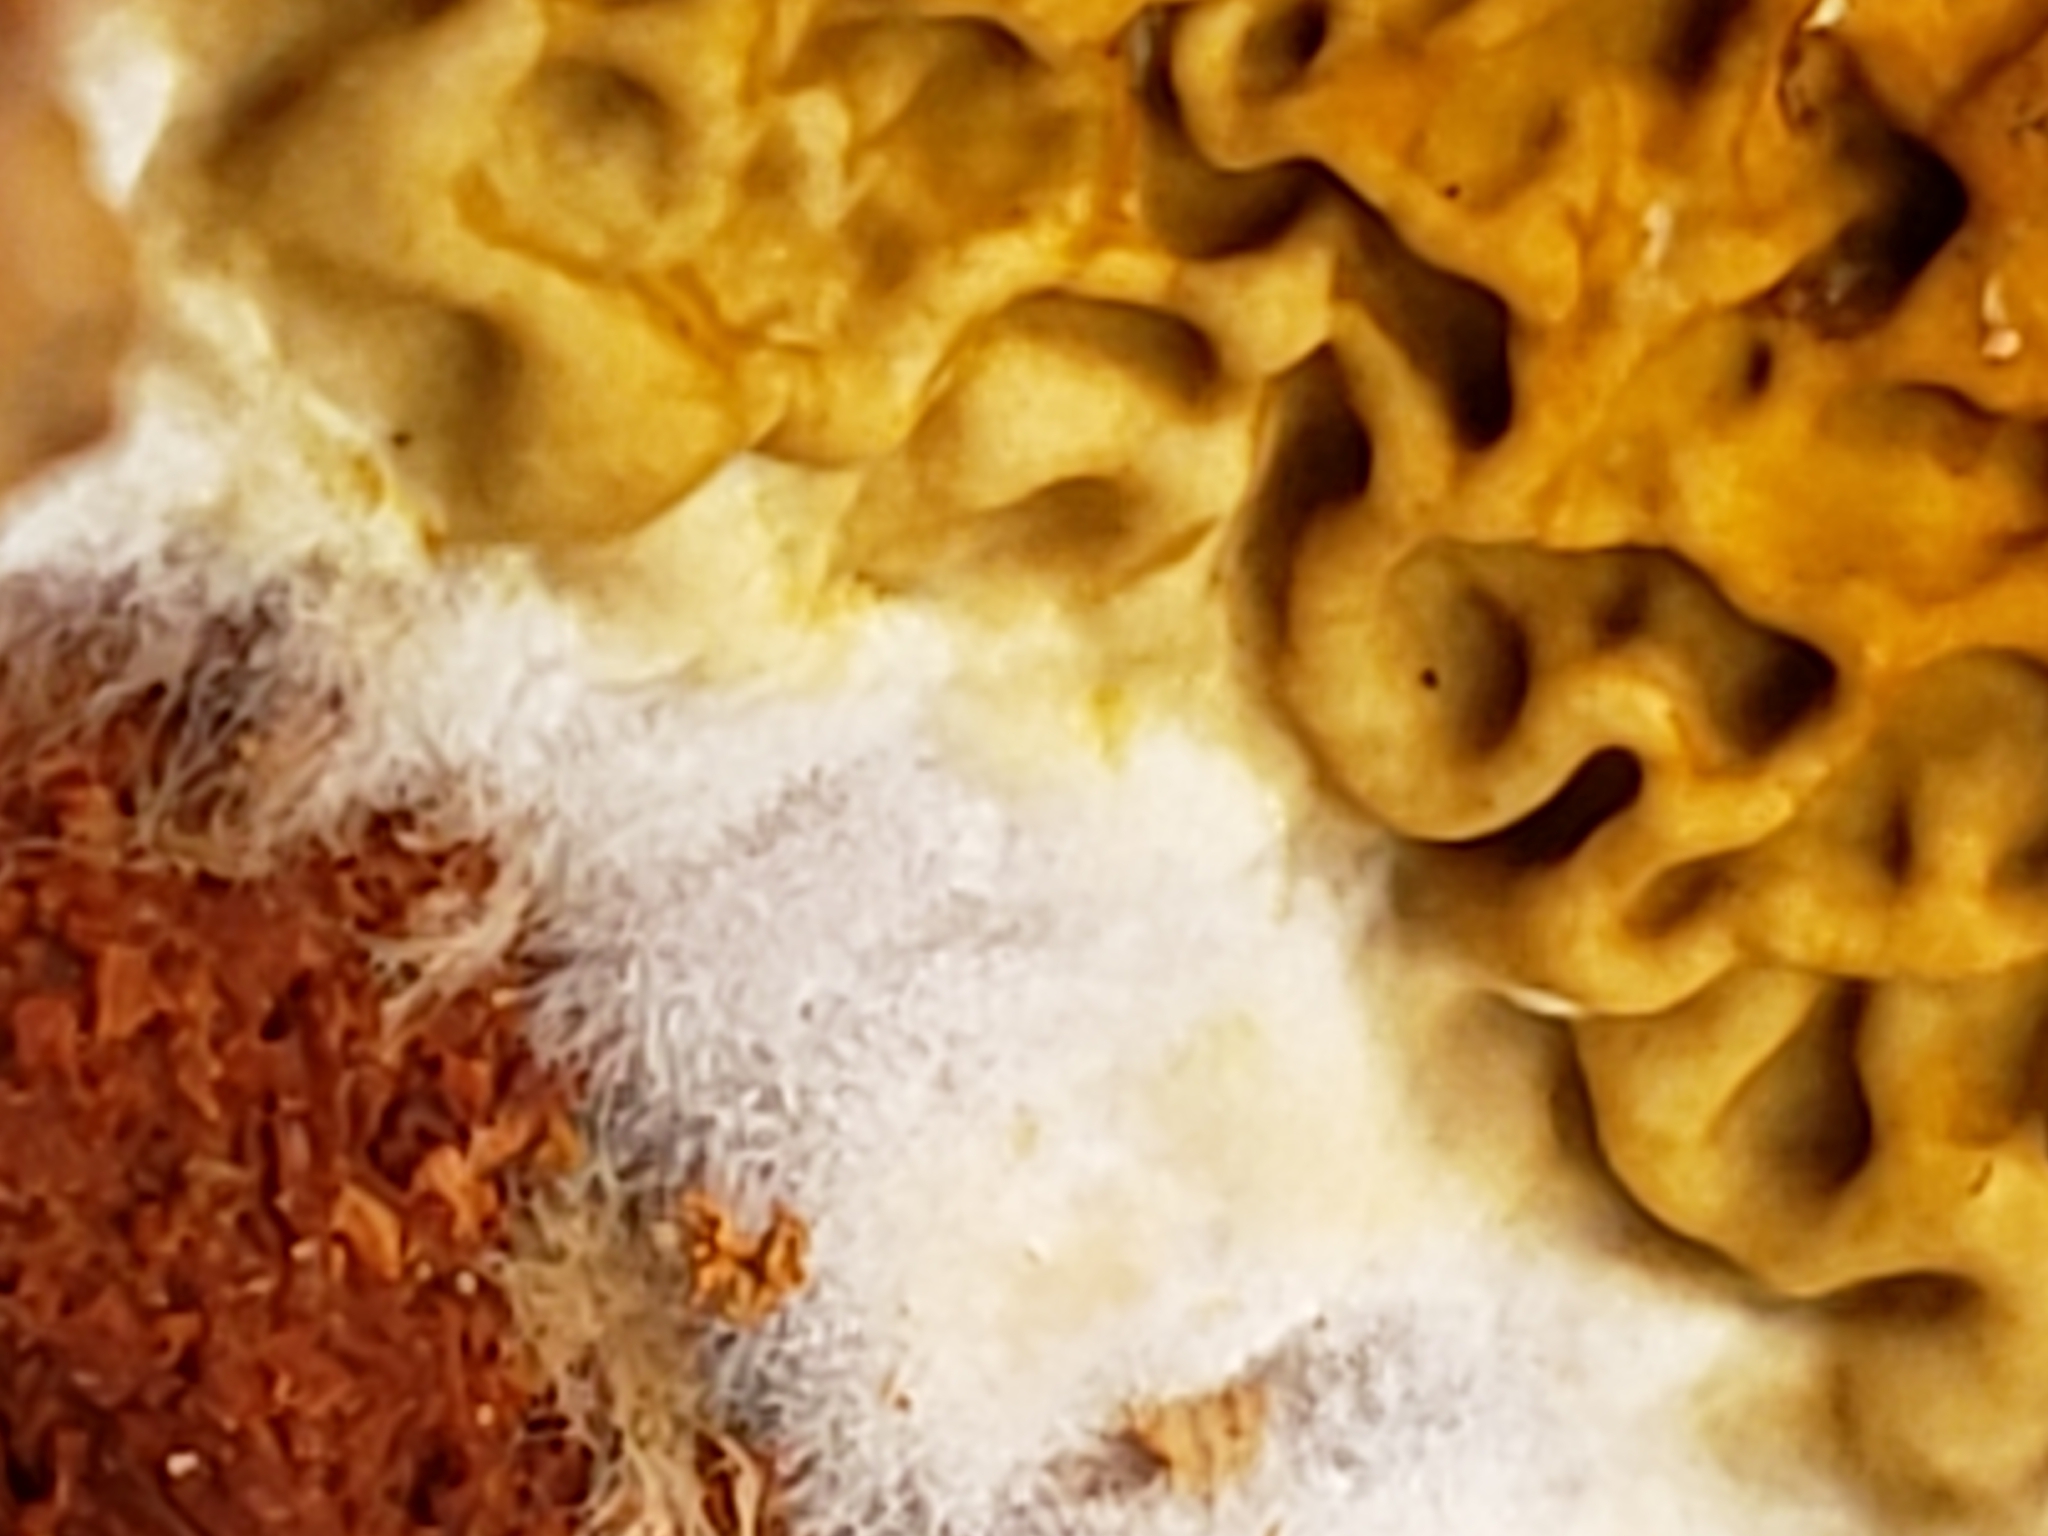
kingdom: Fungi
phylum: Basidiomycota
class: Agaricomycetes
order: Boletales
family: Serpulaceae
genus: Serpula
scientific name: Serpula himantioides
